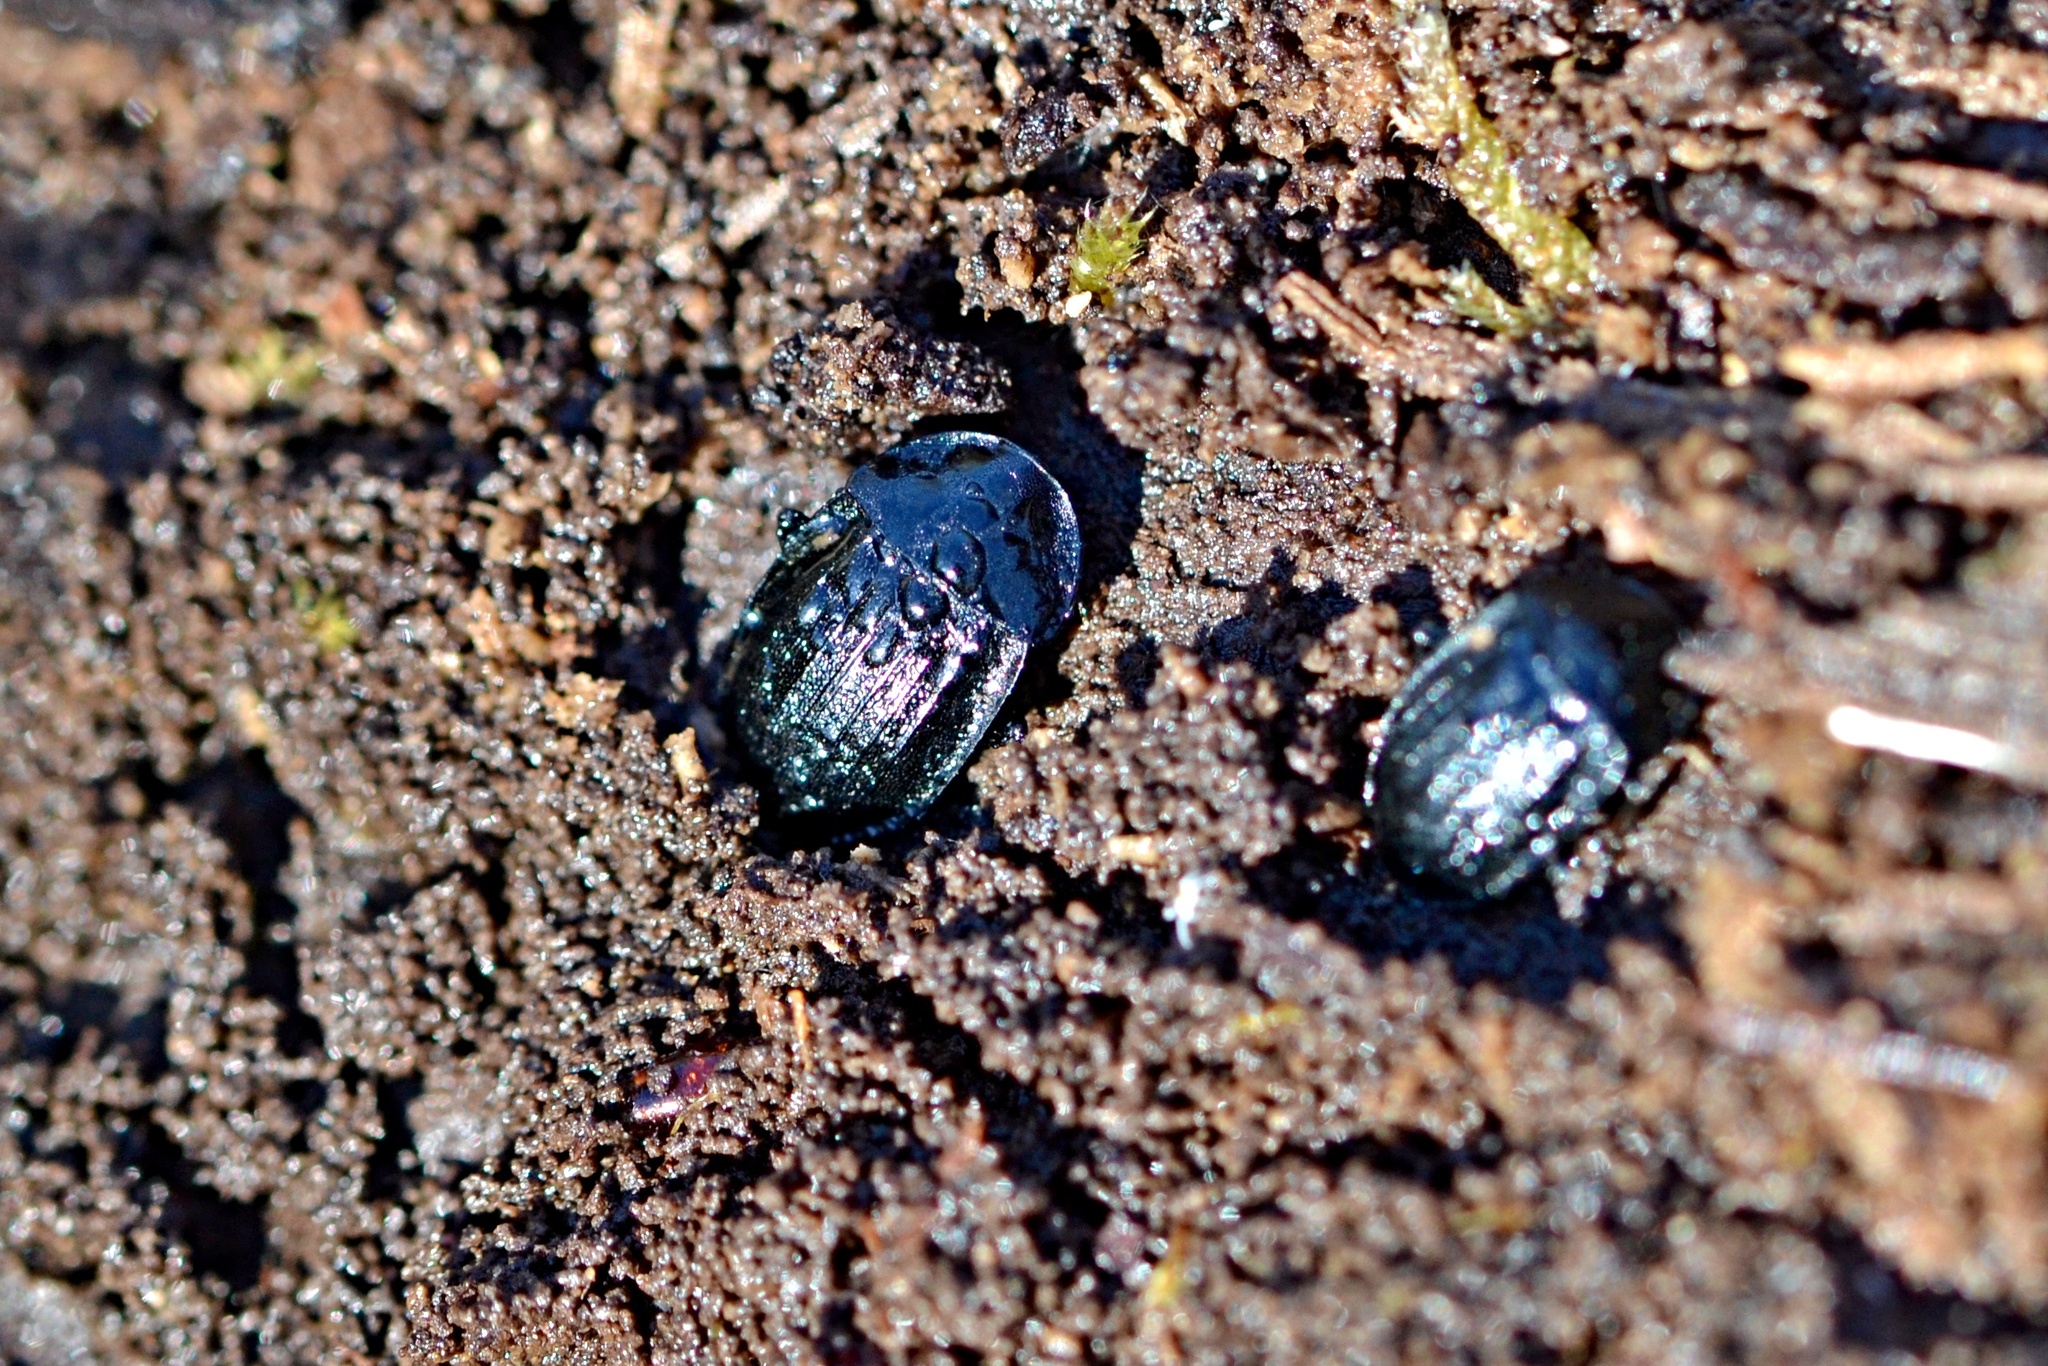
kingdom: Animalia
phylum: Arthropoda
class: Insecta
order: Coleoptera
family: Staphylinidae
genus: Silpha
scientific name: Silpha atrata
